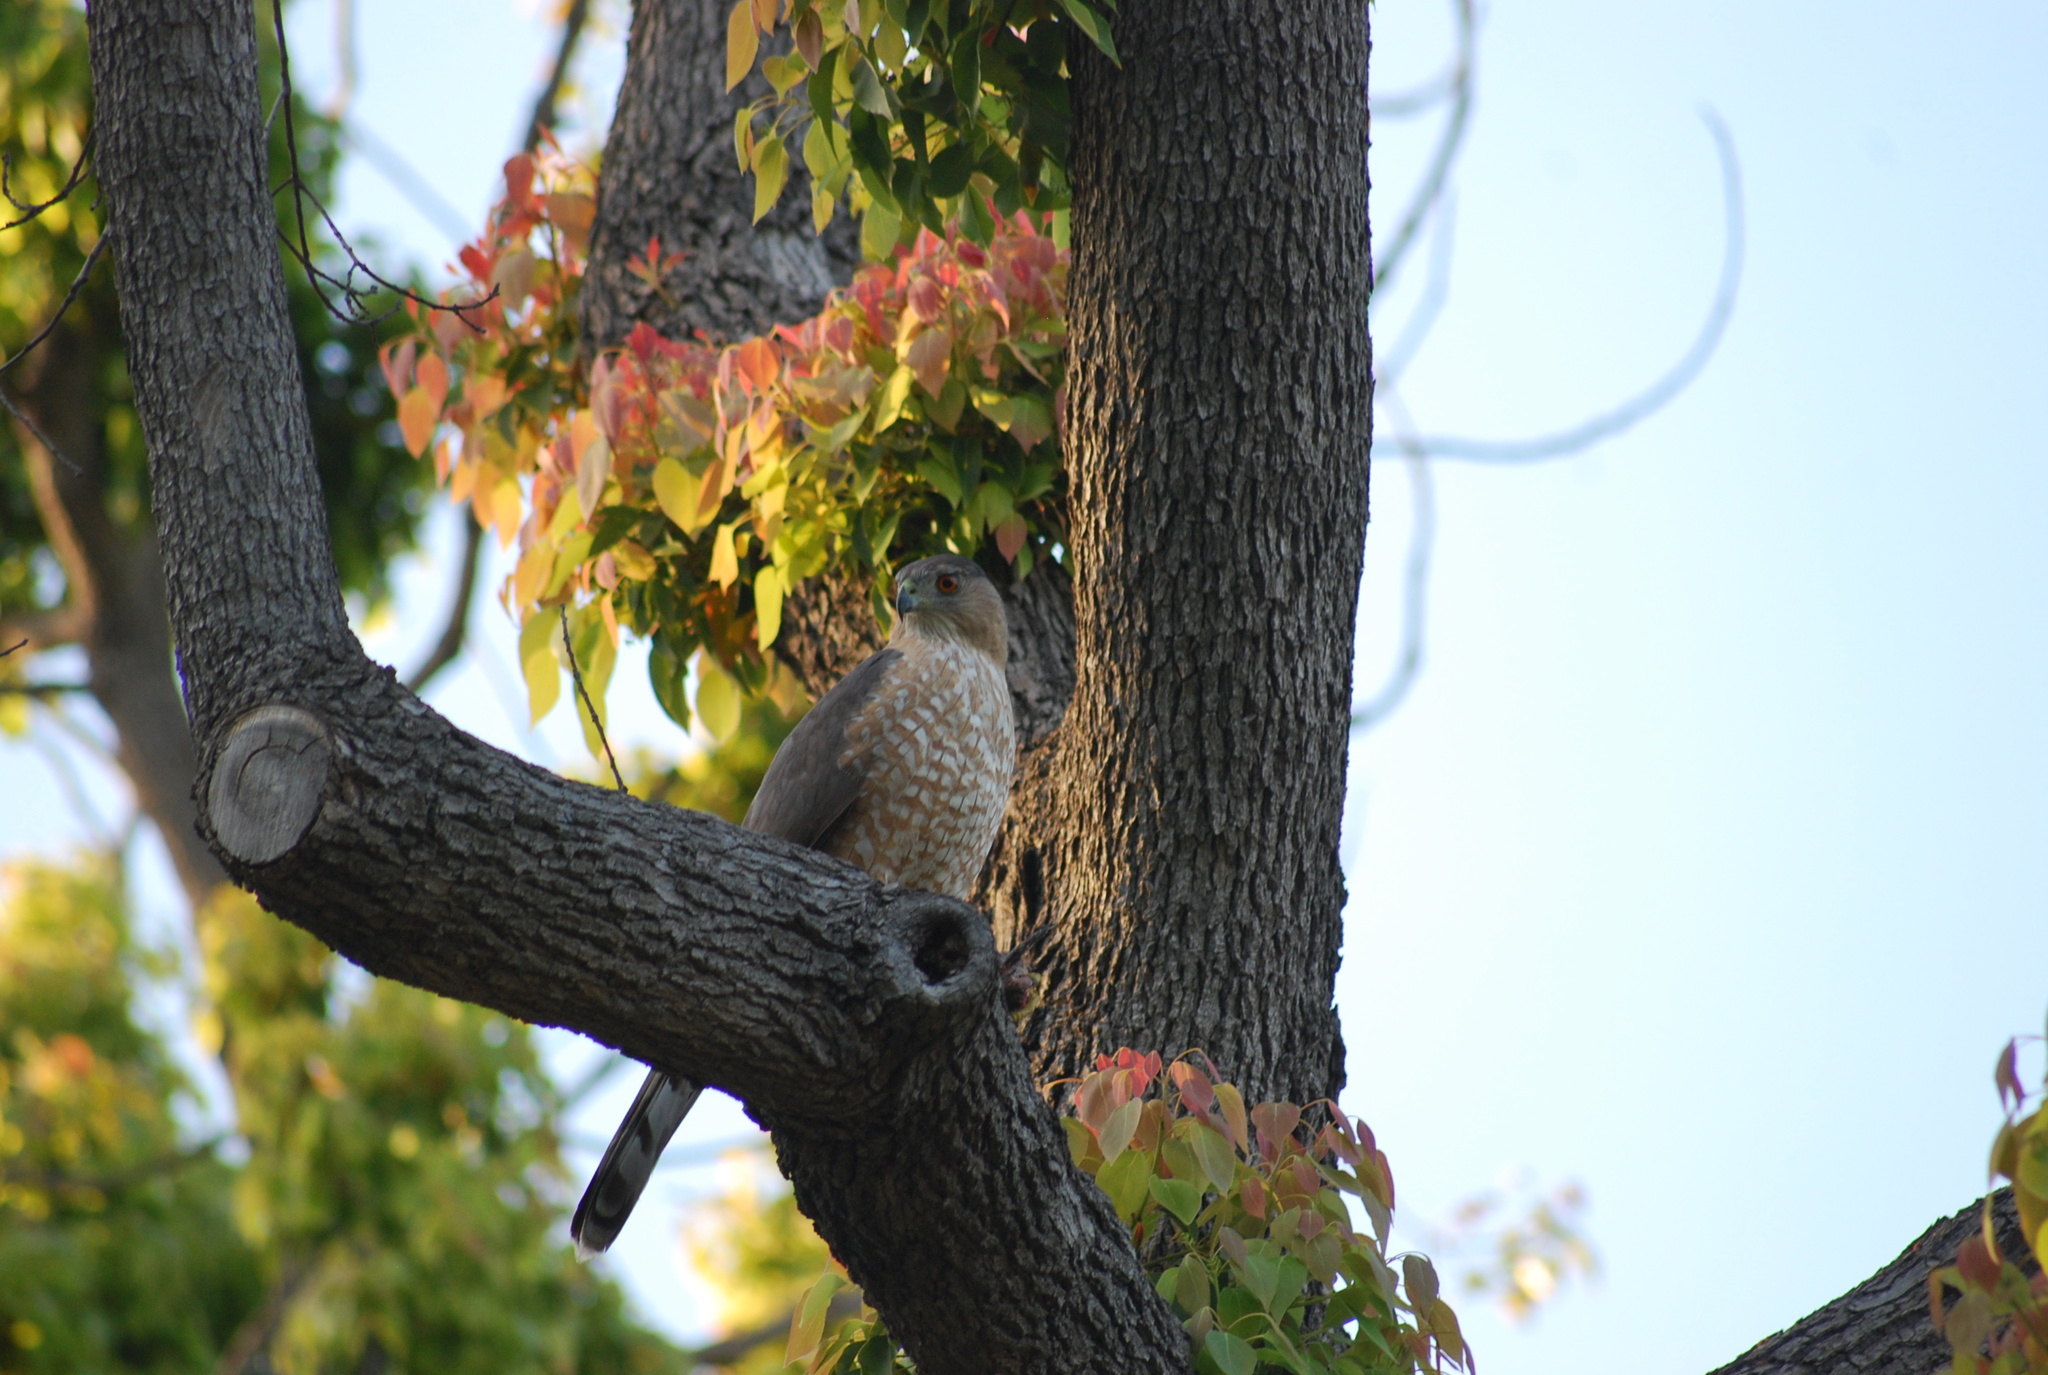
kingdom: Animalia
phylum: Chordata
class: Aves
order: Accipitriformes
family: Accipitridae
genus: Accipiter
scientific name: Accipiter cooperii
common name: Cooper's hawk
